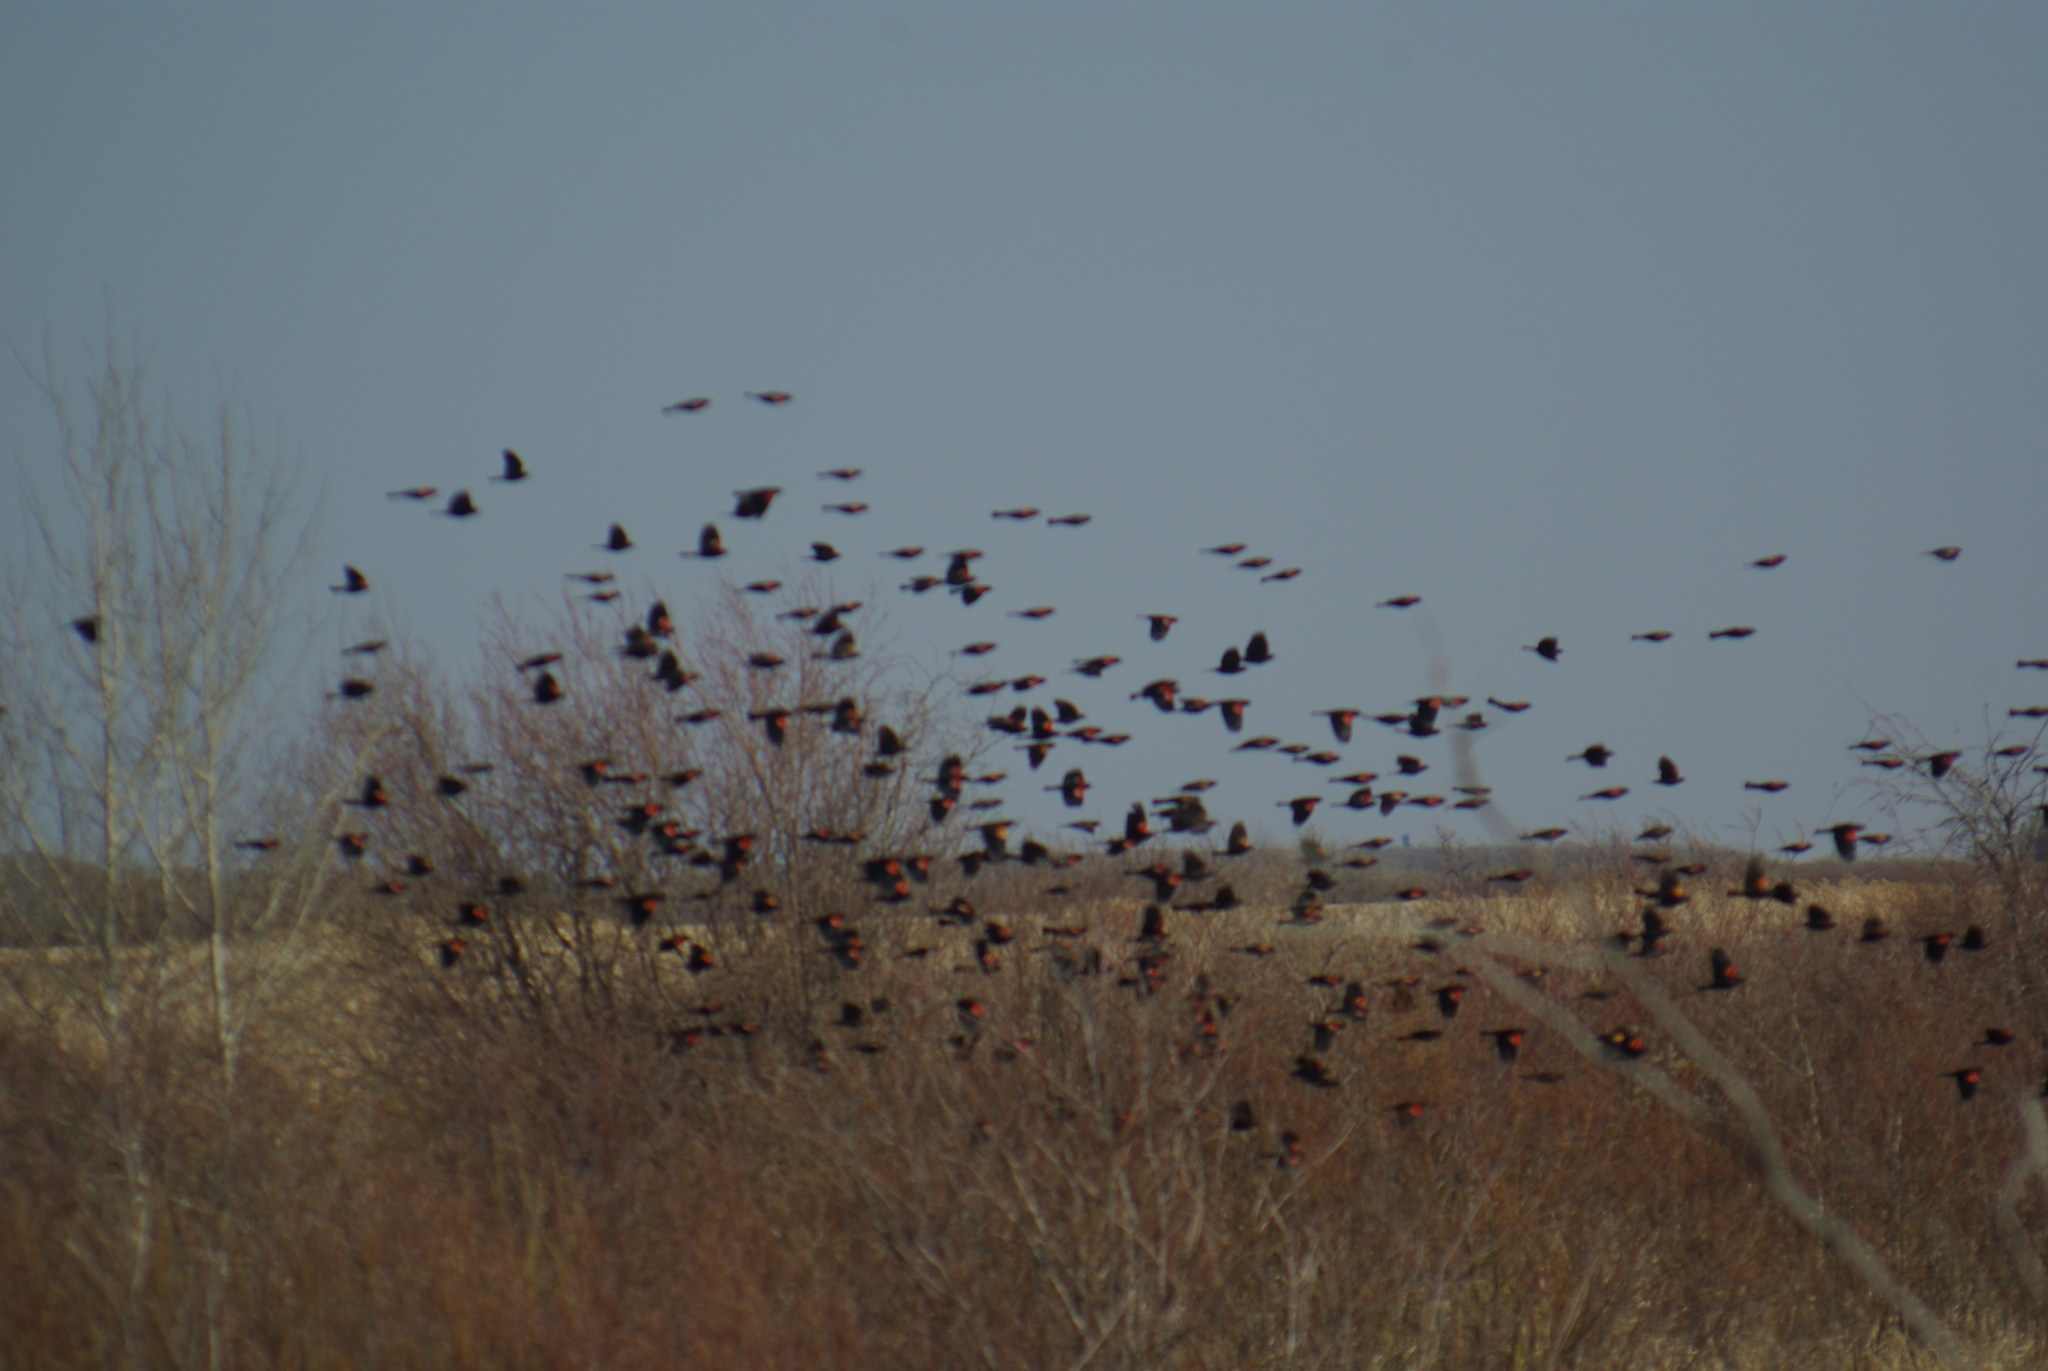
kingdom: Animalia
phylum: Chordata
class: Aves
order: Passeriformes
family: Icteridae
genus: Agelaius
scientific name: Agelaius phoeniceus
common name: Red-winged blackbird
